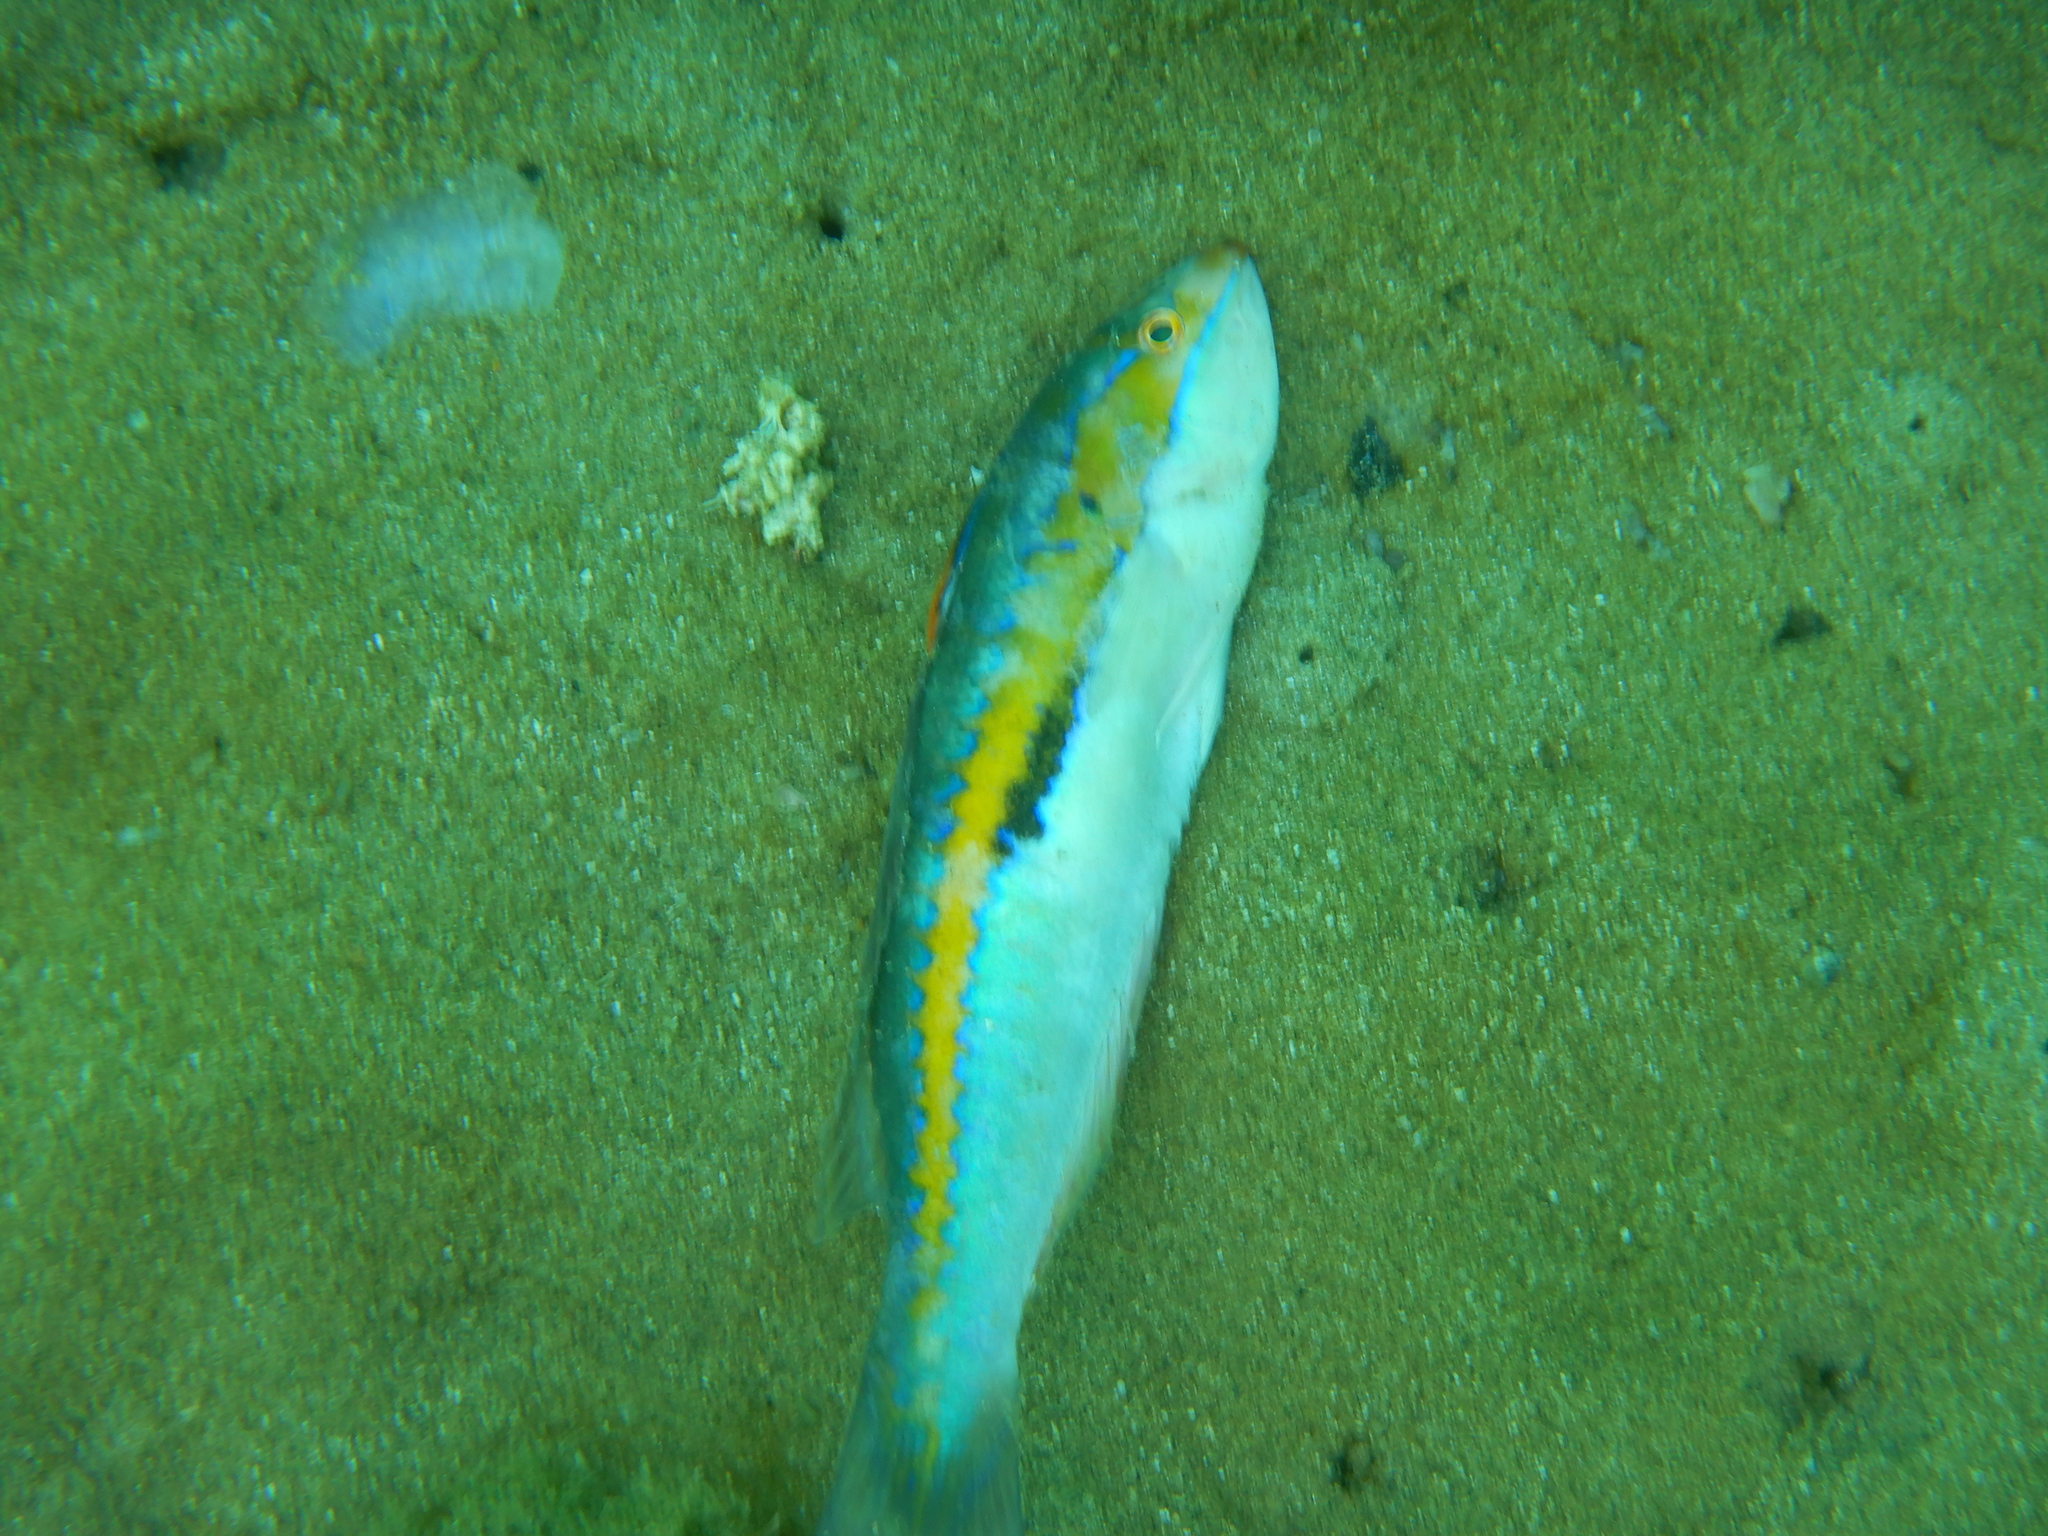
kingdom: Animalia
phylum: Chordata
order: Perciformes
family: Labridae
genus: Coris
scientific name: Coris julis
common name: Rainbow wrasse
